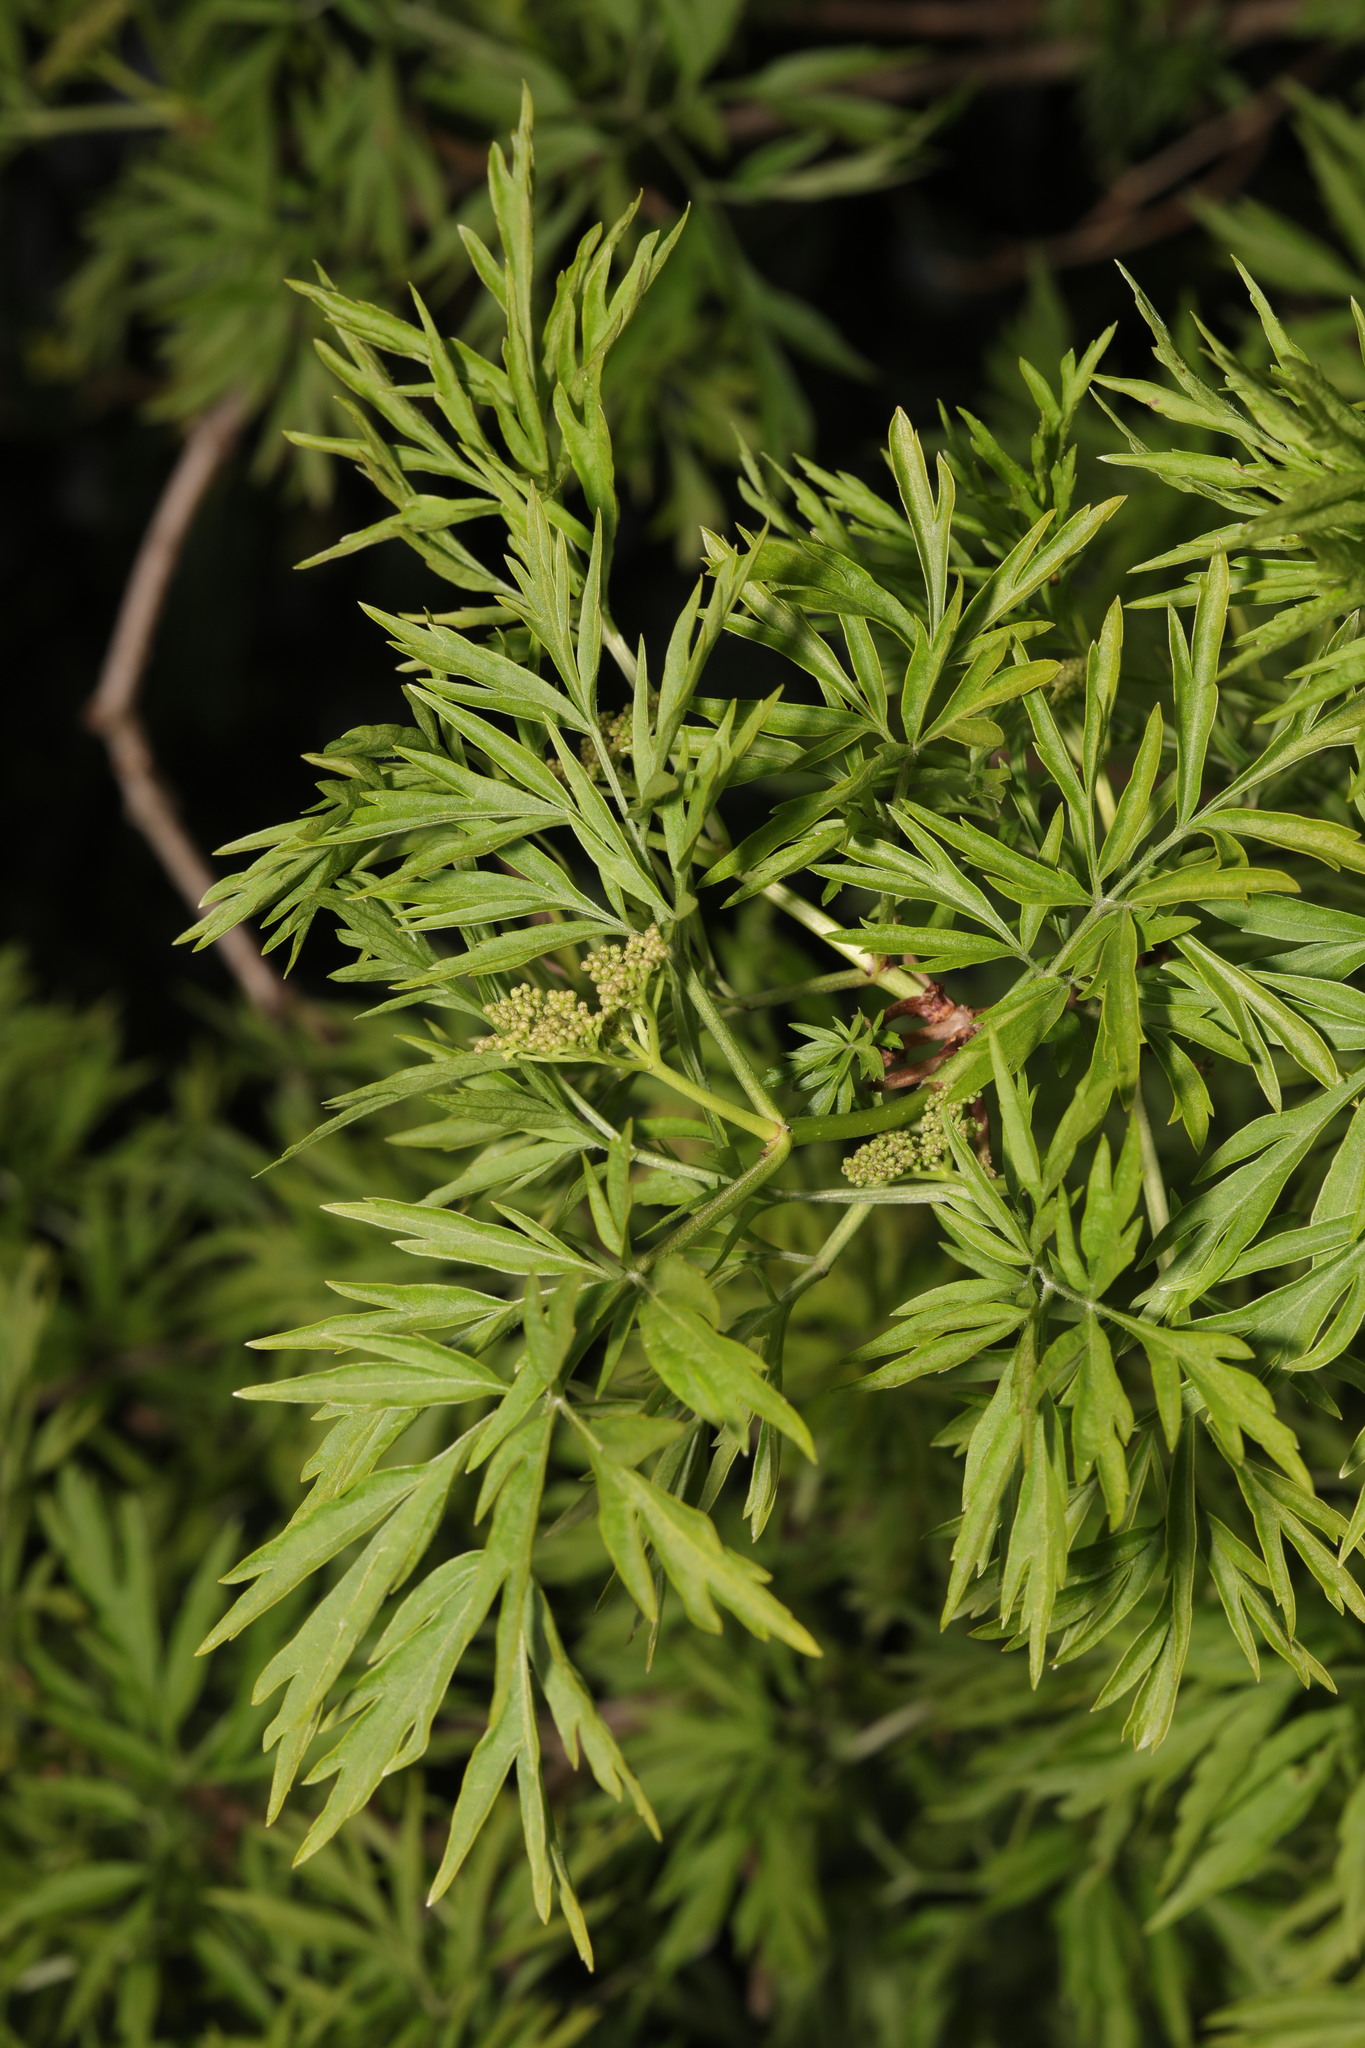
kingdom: Plantae
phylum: Tracheophyta
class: Magnoliopsida
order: Dipsacales
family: Viburnaceae
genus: Sambucus
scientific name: Sambucus nigra
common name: Elder
